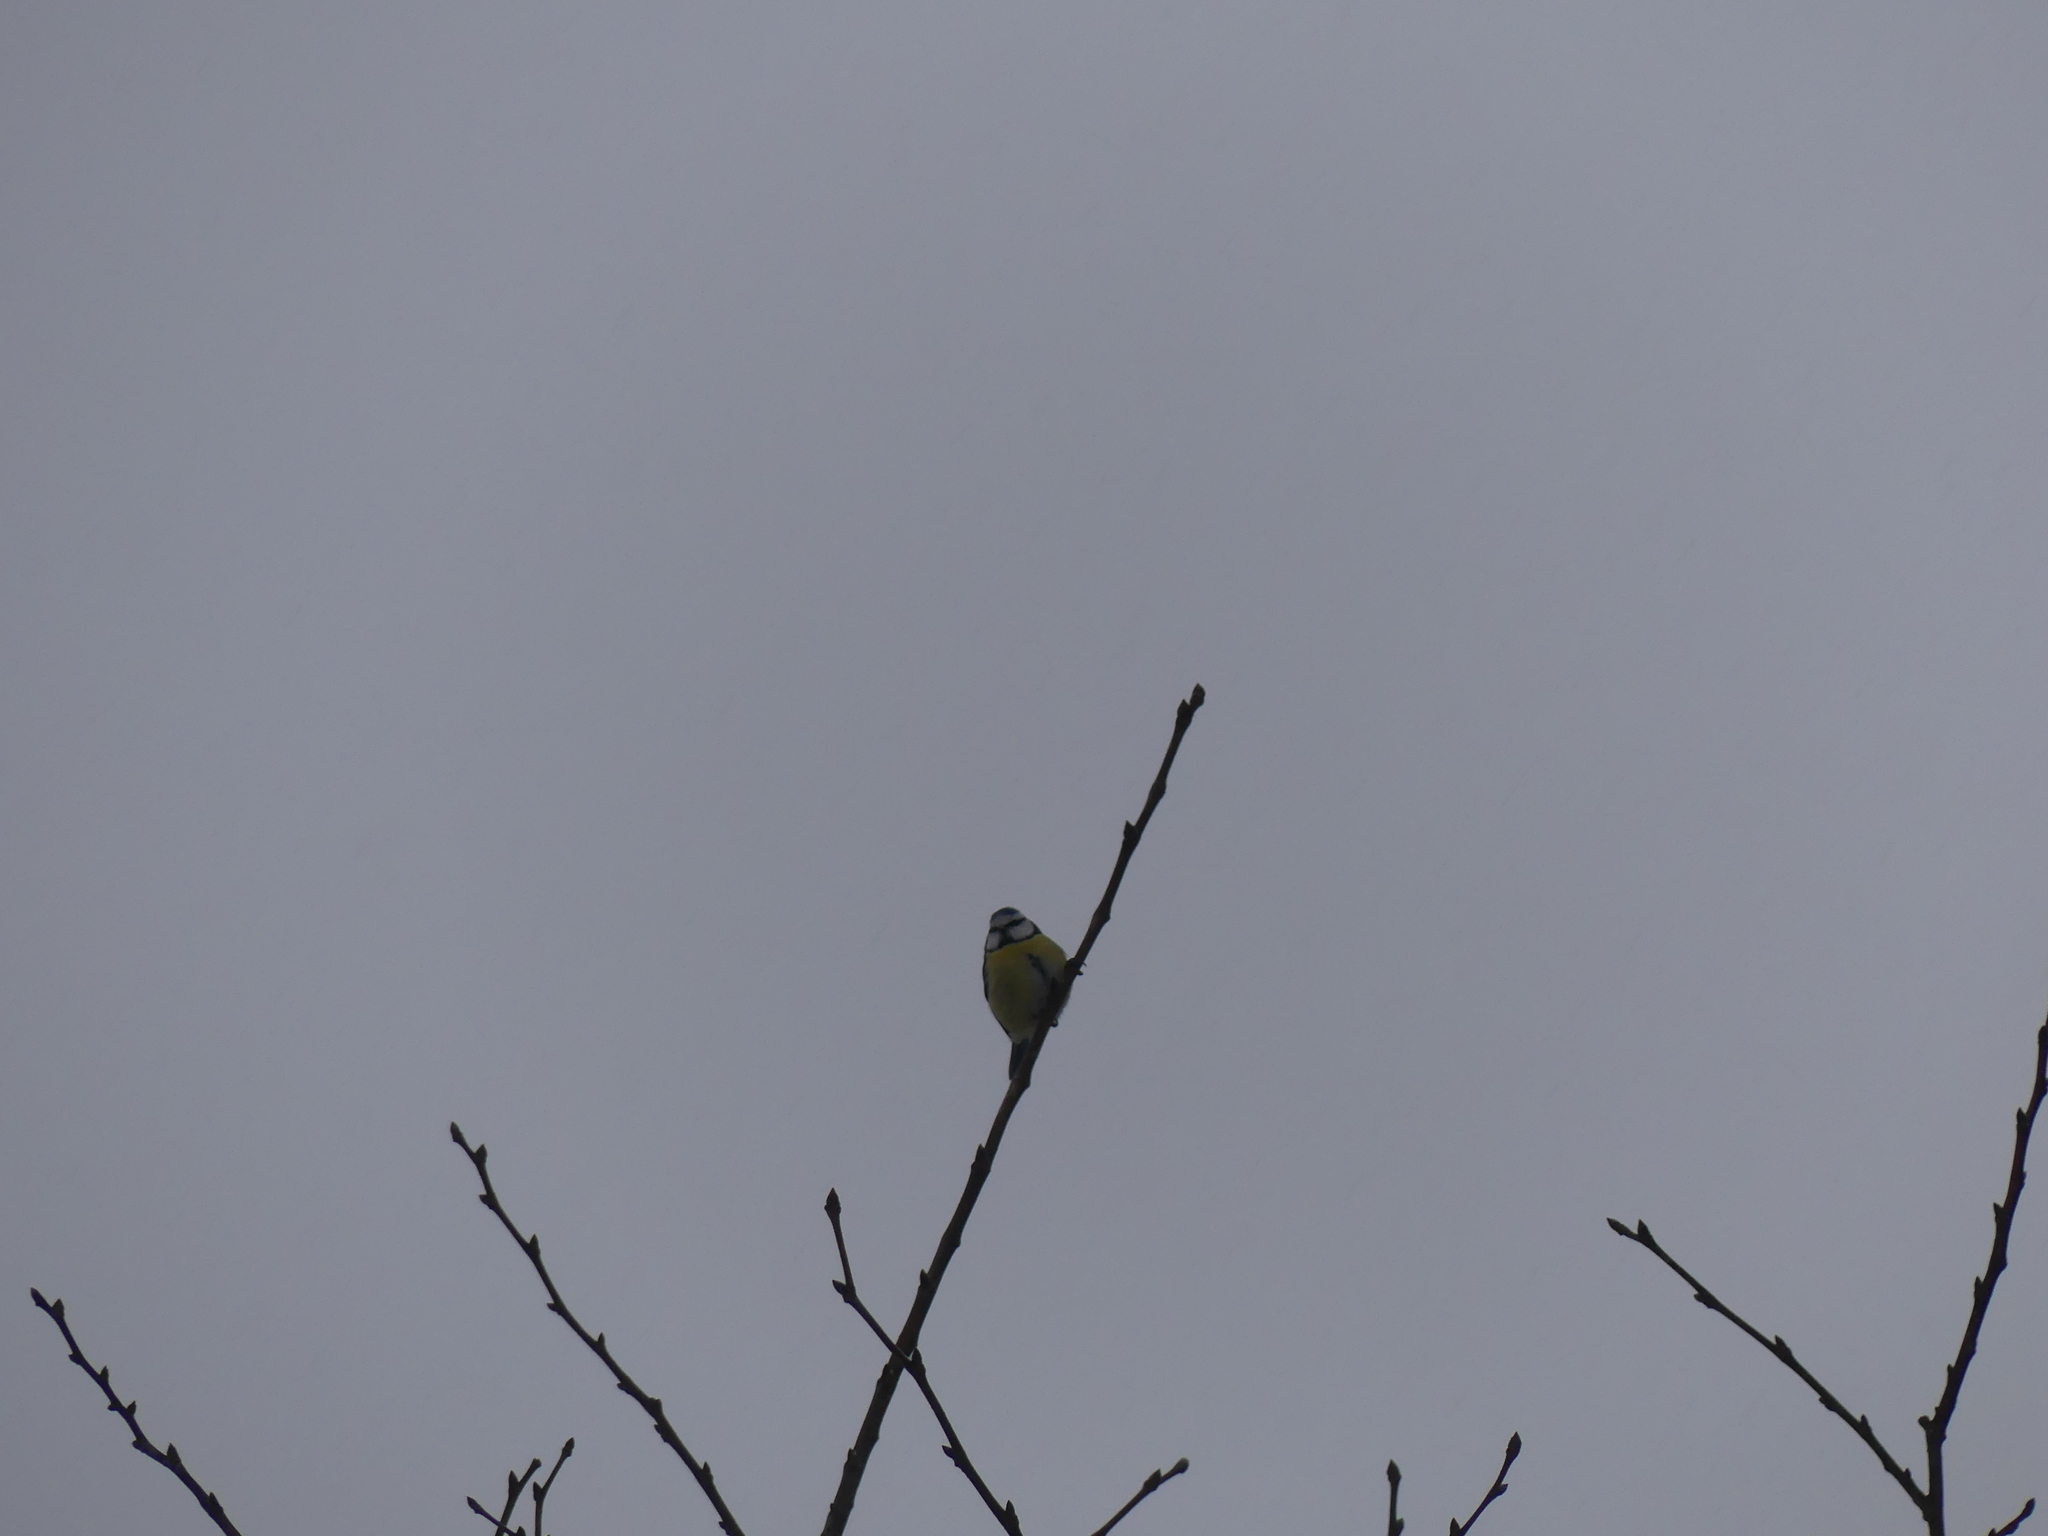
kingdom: Animalia
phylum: Chordata
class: Aves
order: Passeriformes
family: Paridae
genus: Cyanistes
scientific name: Cyanistes caeruleus
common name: Eurasian blue tit
